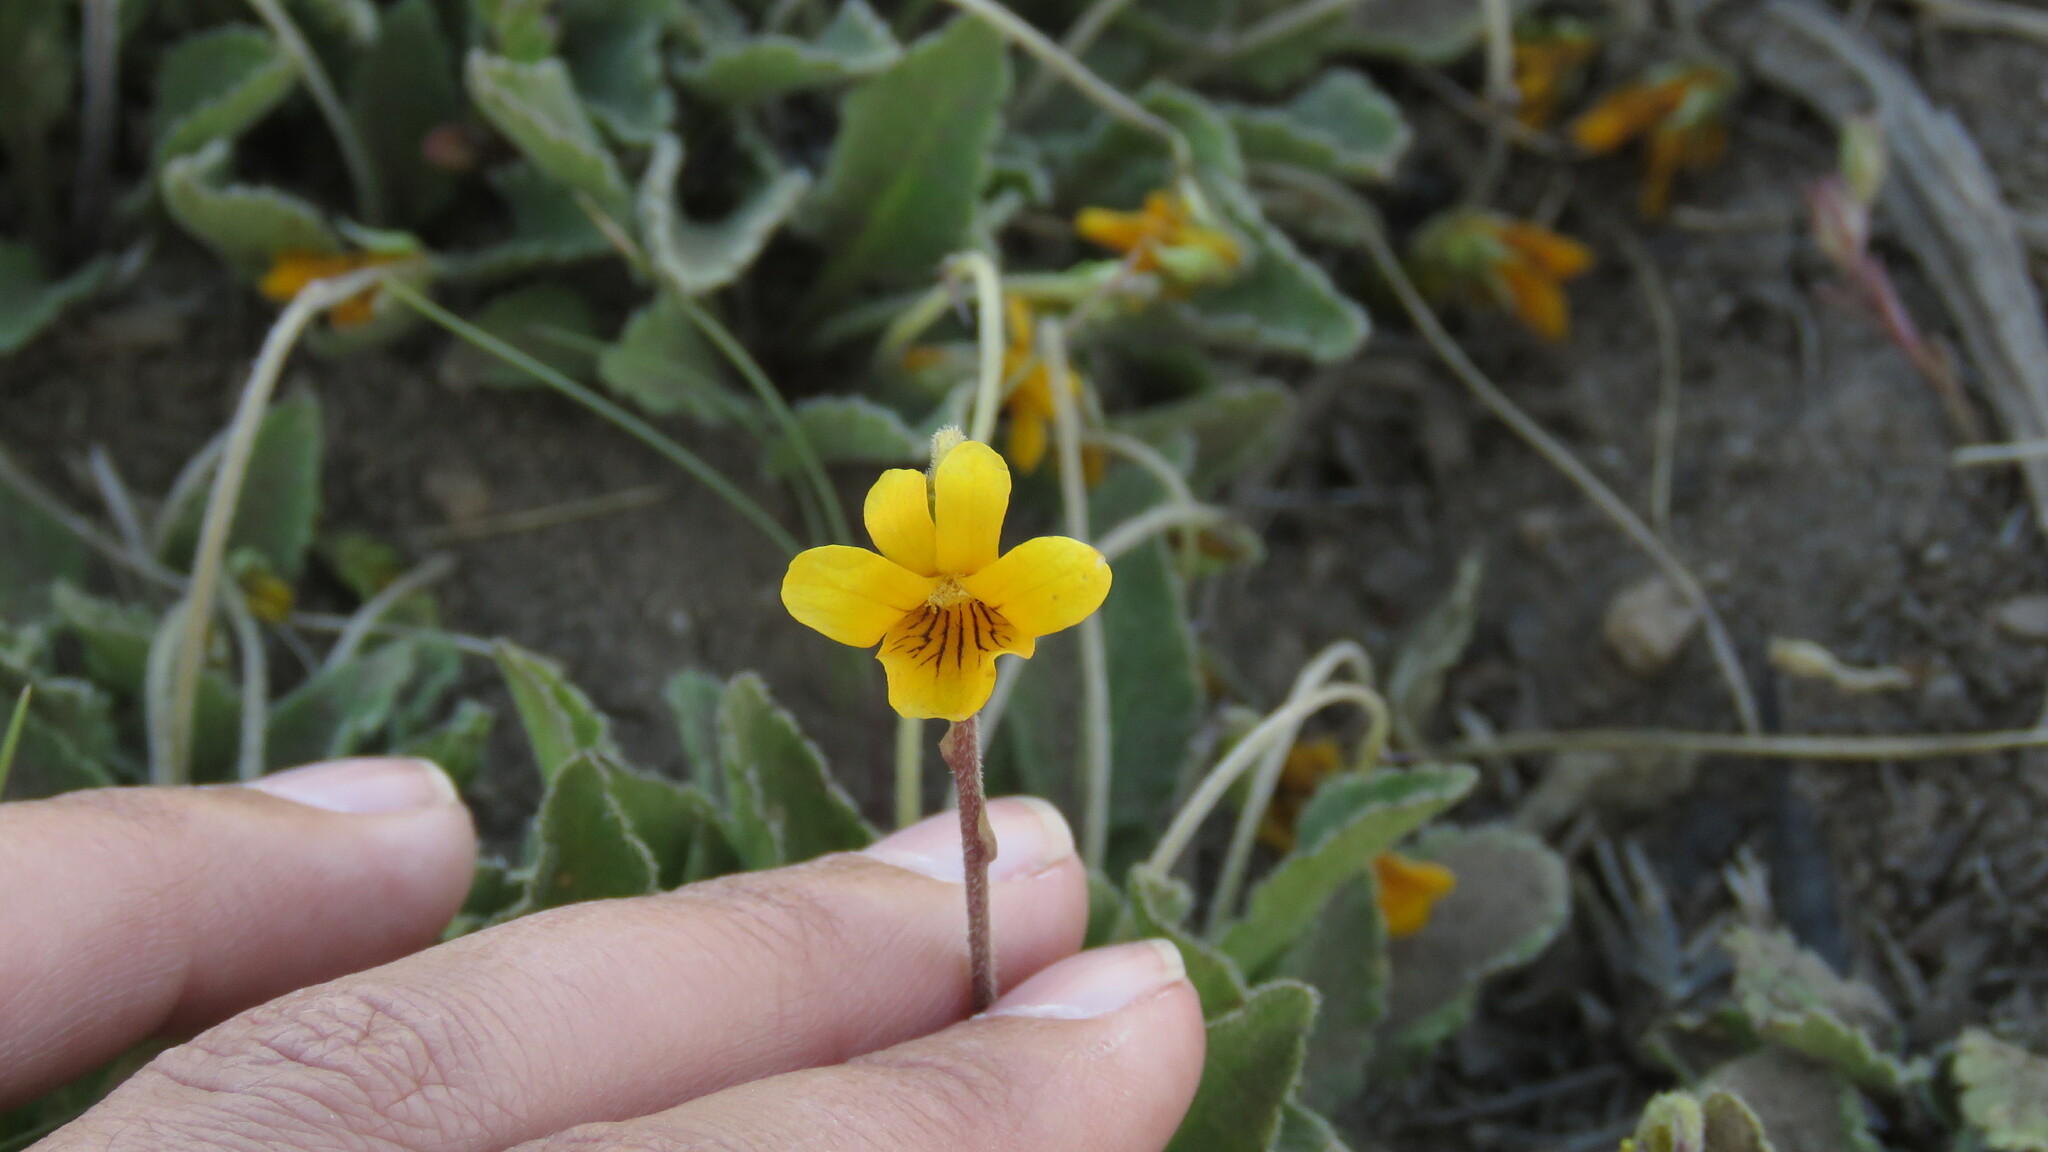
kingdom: Plantae
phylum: Tracheophyta
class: Magnoliopsida
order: Malpighiales
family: Violaceae
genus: Viola
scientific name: Viola maculata
